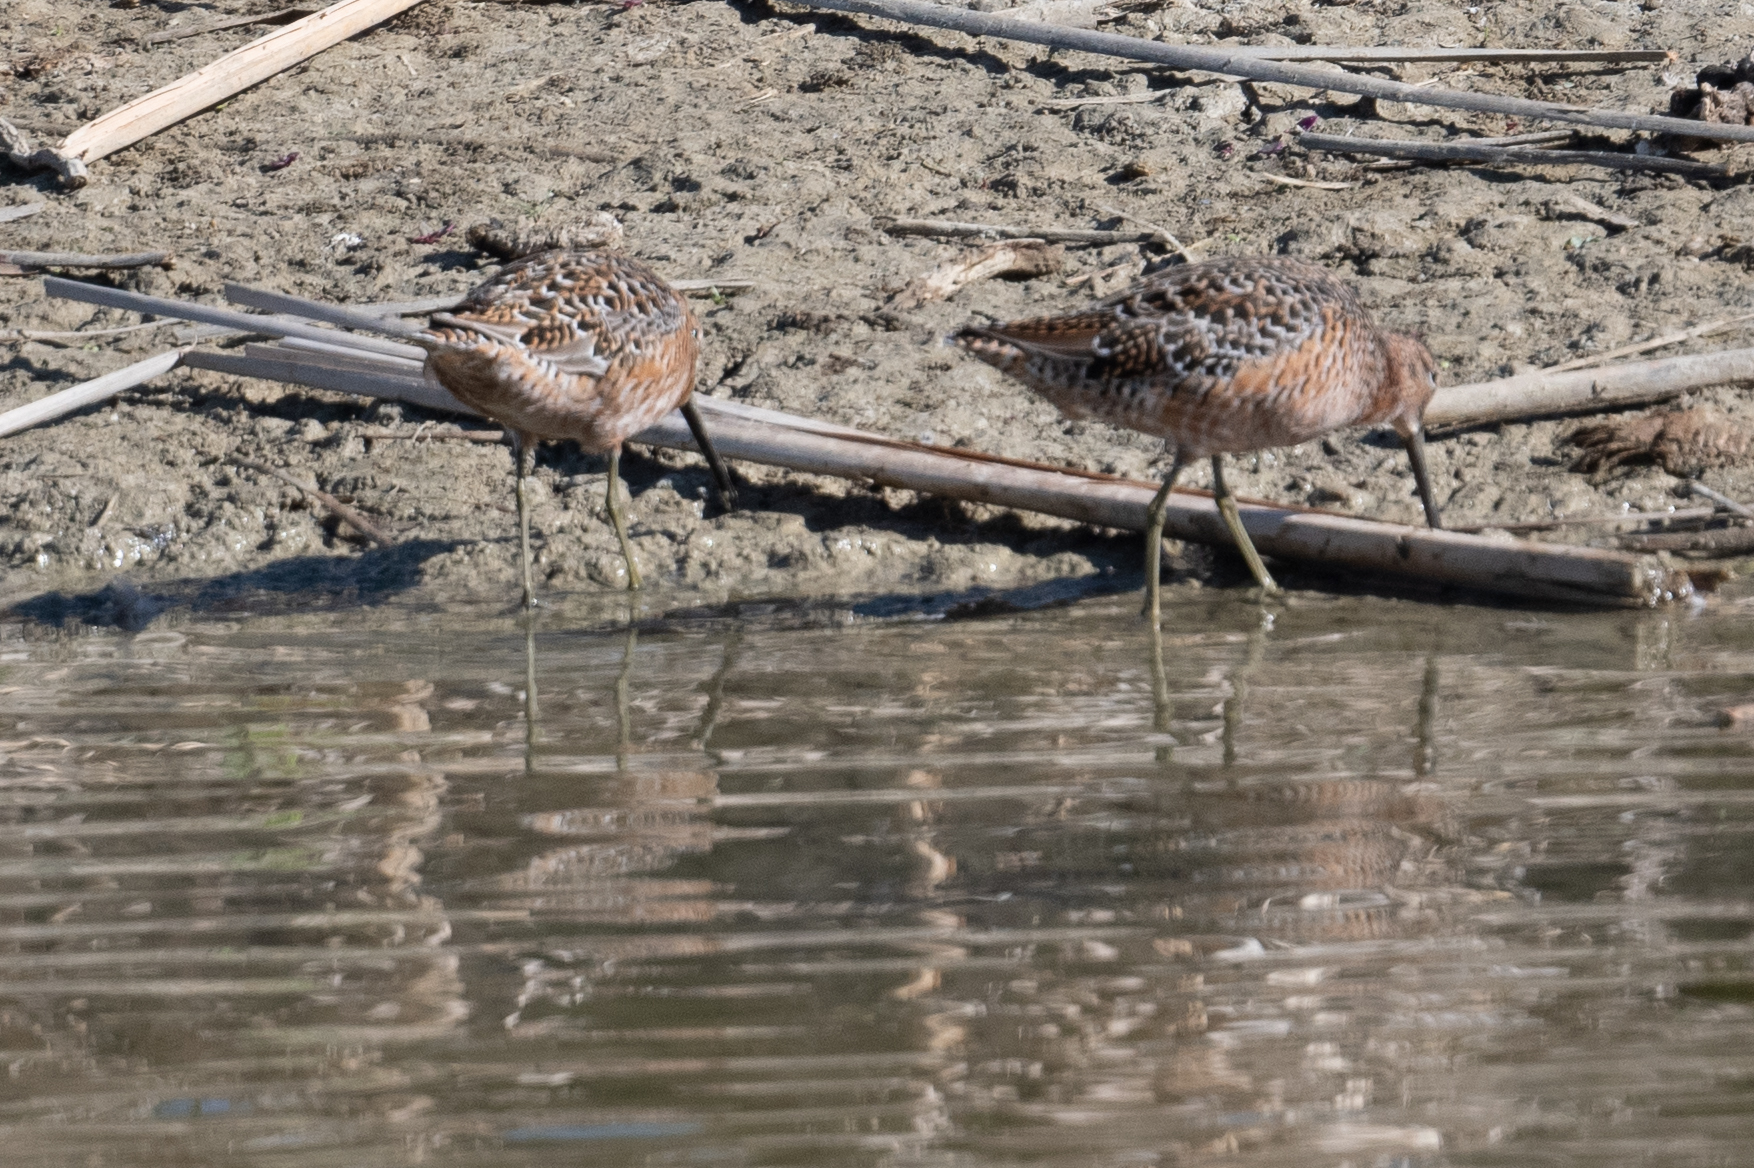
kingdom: Animalia
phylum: Chordata
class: Aves
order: Charadriiformes
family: Scolopacidae
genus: Limnodromus
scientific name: Limnodromus scolopaceus
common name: Long-billed dowitcher
